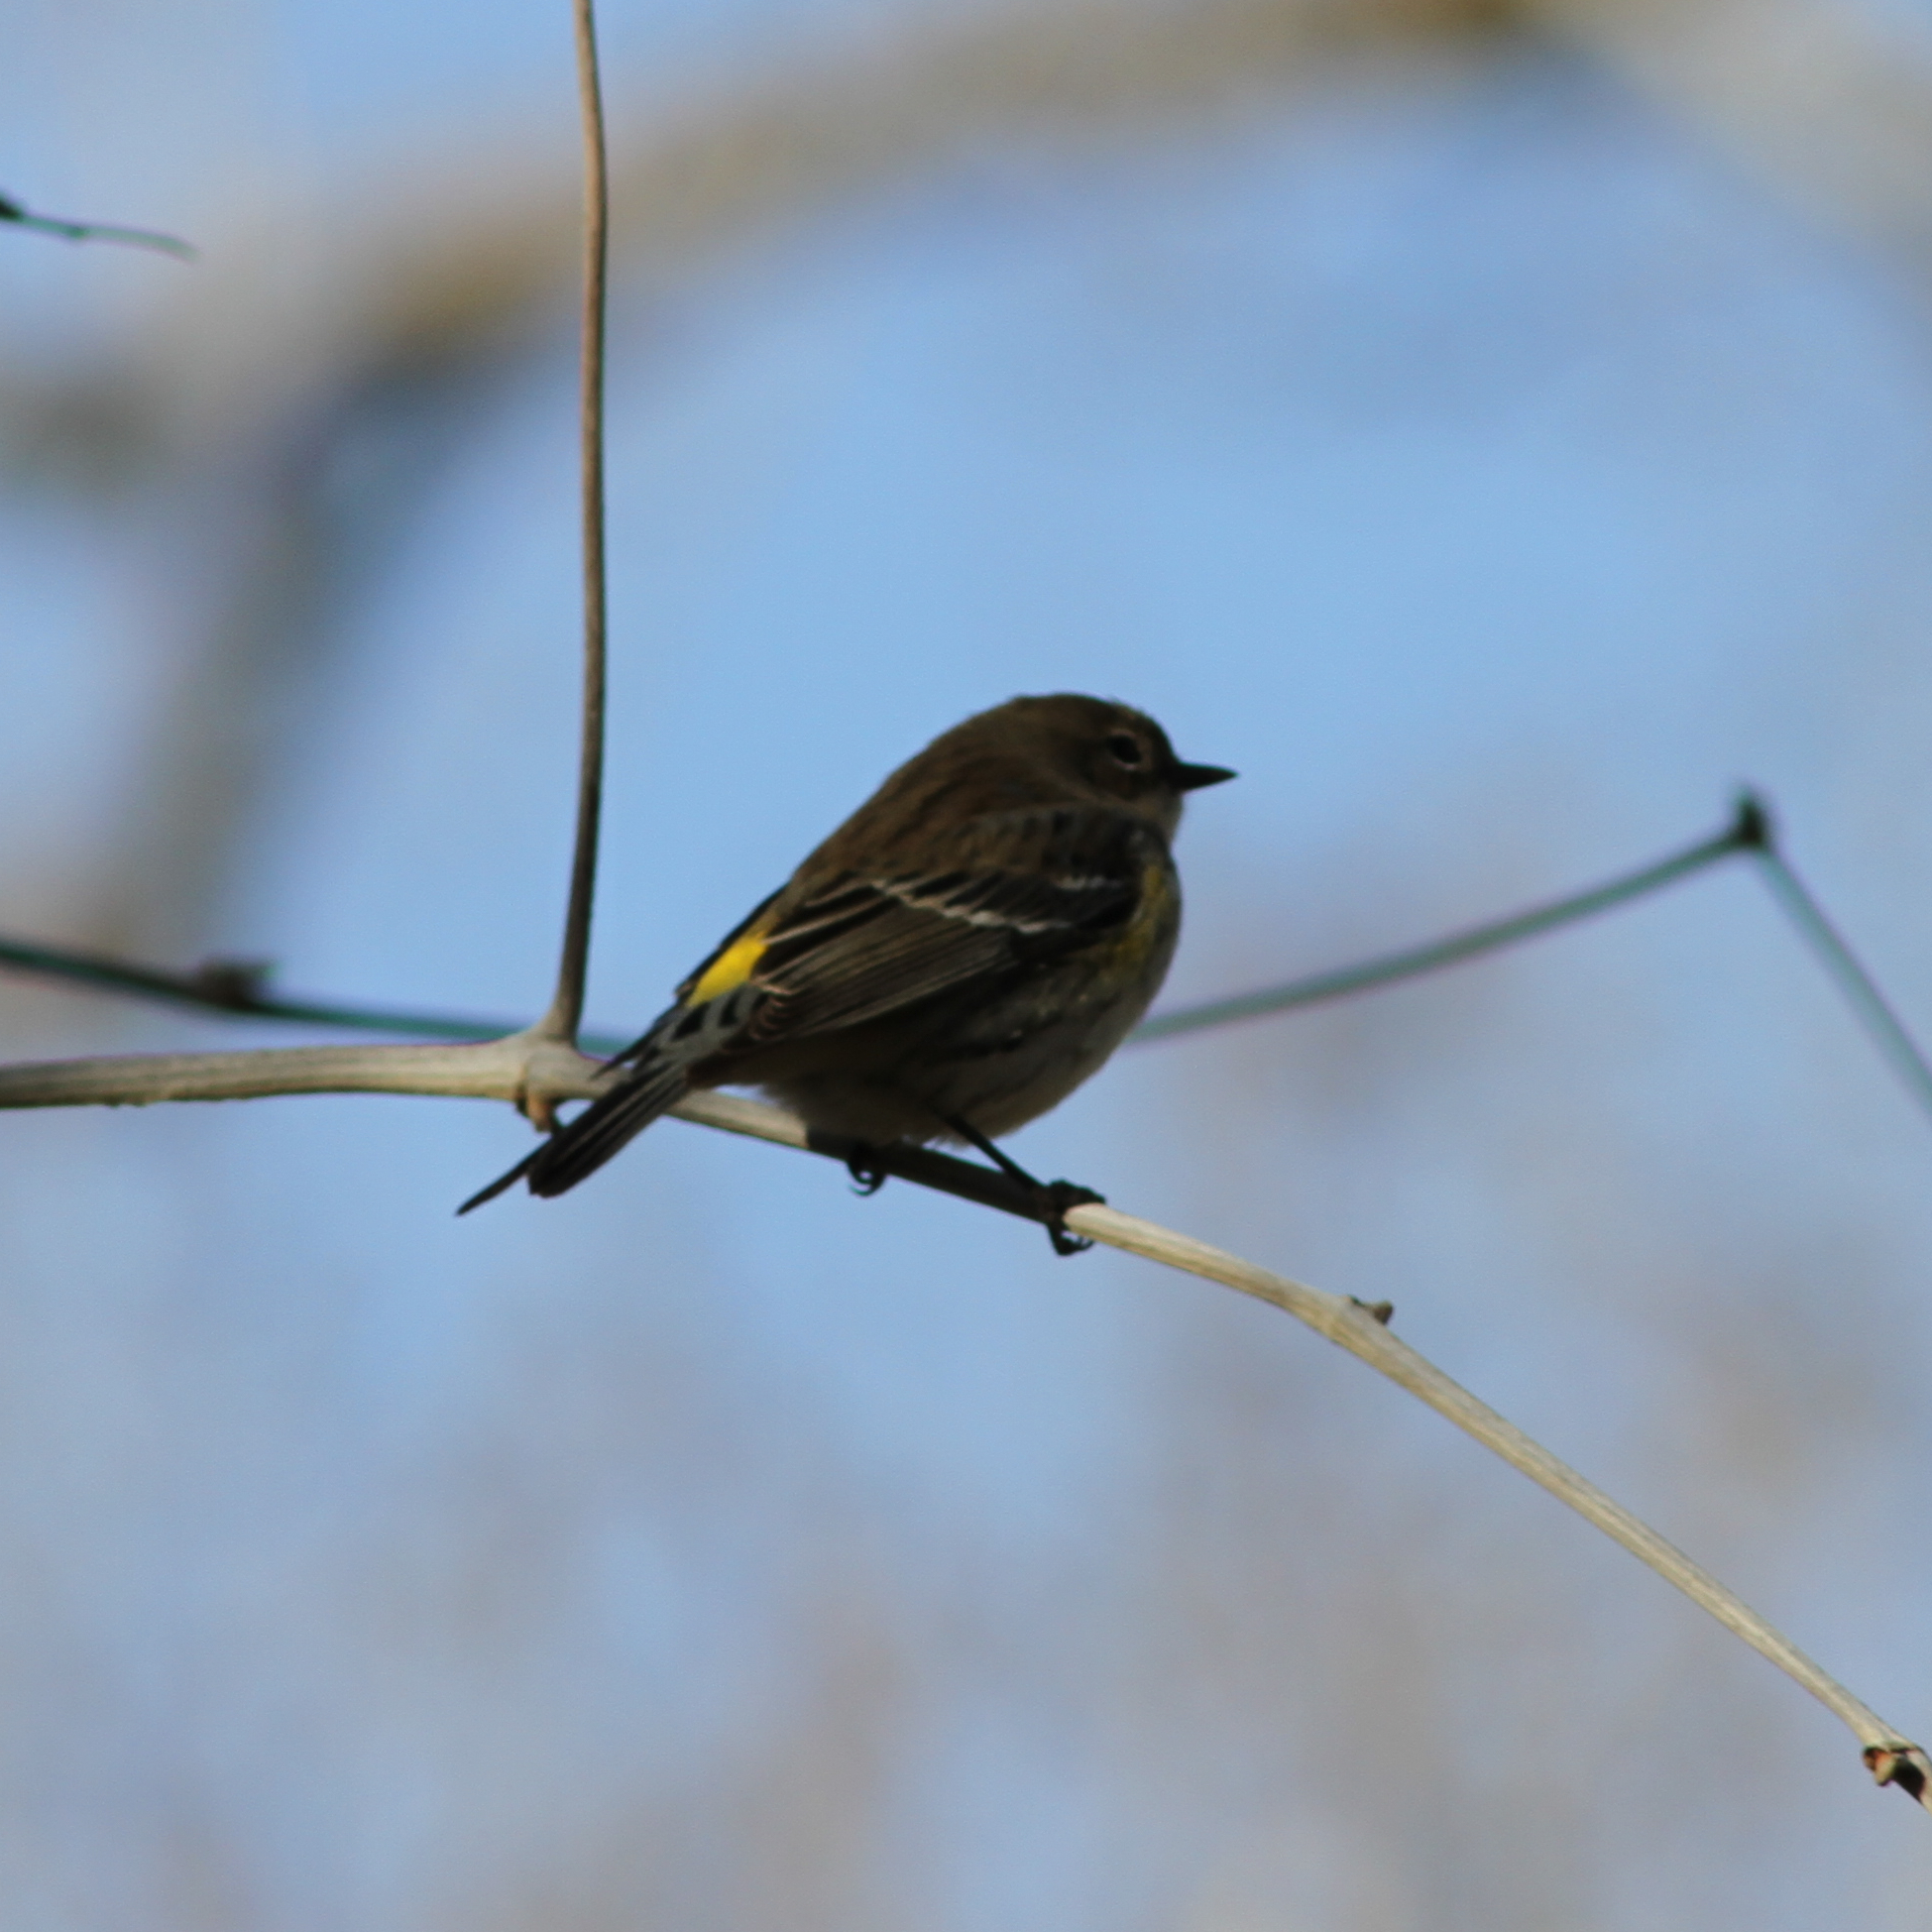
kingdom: Animalia
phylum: Chordata
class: Aves
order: Passeriformes
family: Parulidae
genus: Setophaga
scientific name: Setophaga coronata
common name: Myrtle warbler
